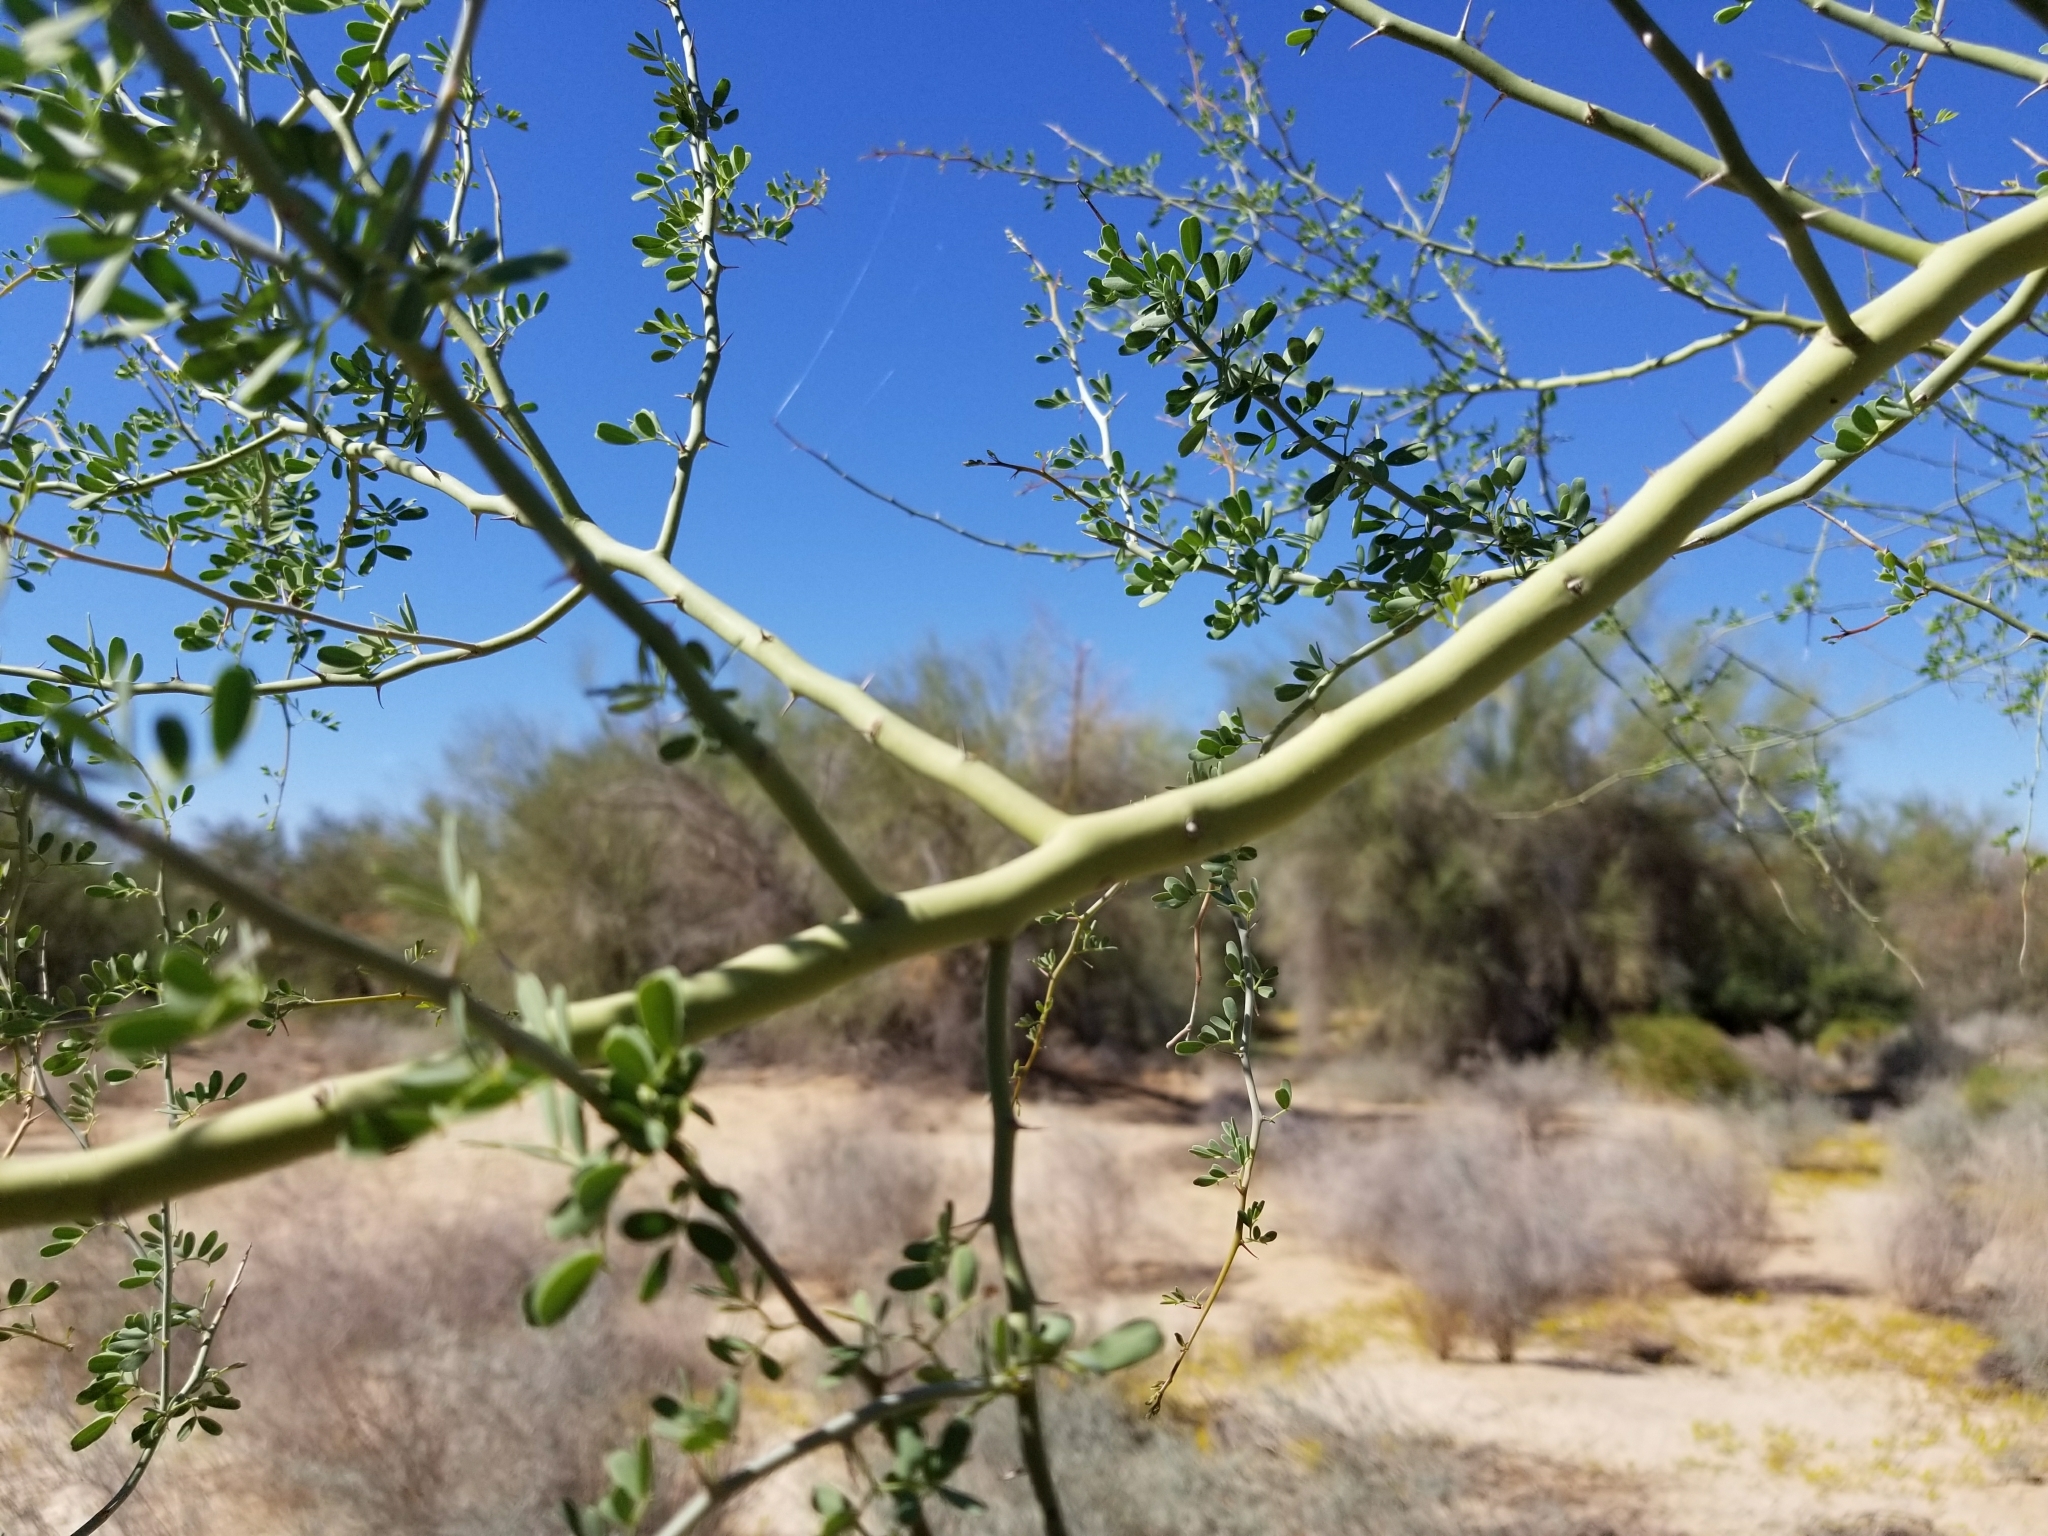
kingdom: Plantae
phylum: Tracheophyta
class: Magnoliopsida
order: Fabales
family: Fabaceae
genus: Parkinsonia
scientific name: Parkinsonia florida
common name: Blue paloverde
